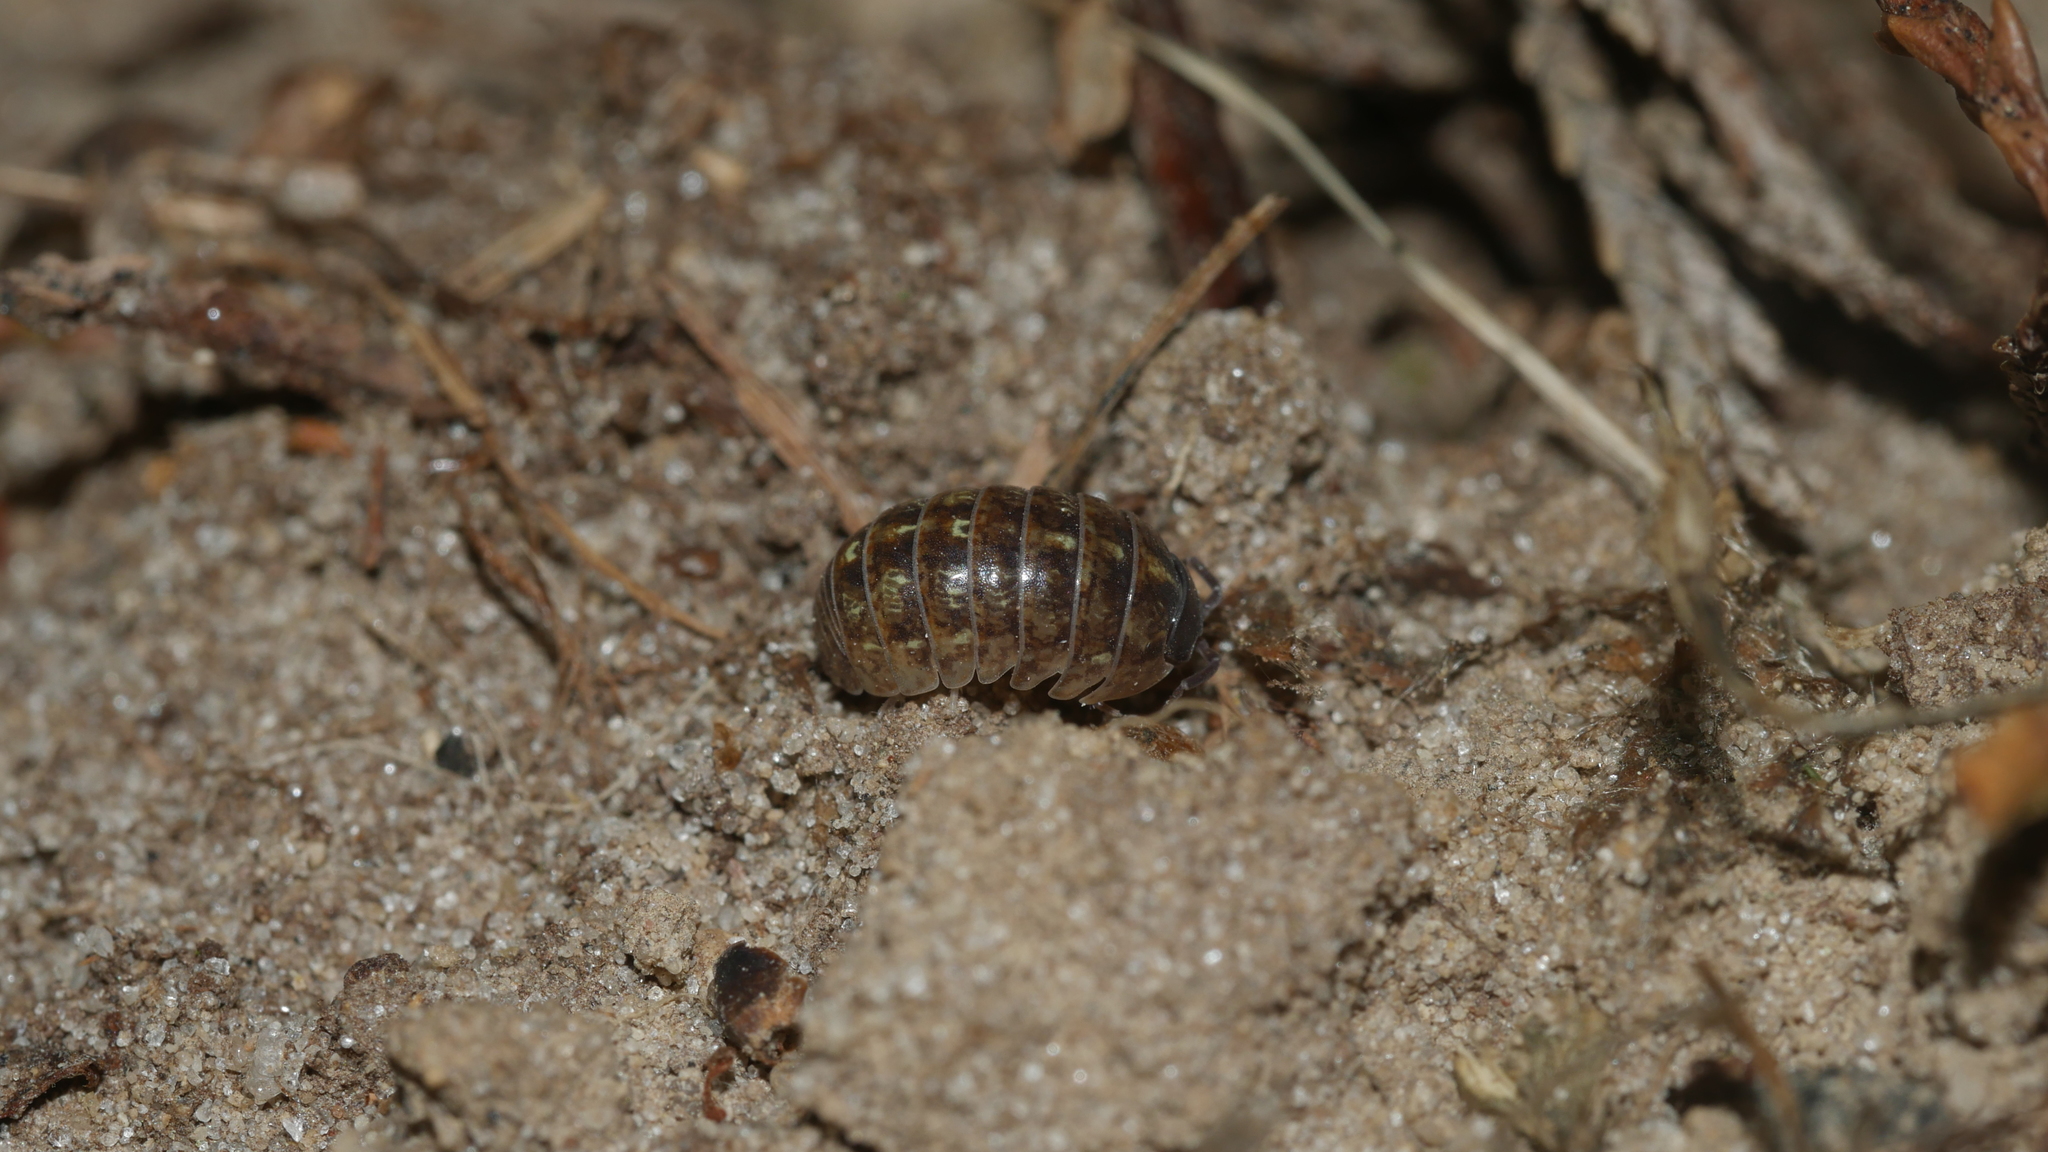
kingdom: Animalia
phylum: Arthropoda
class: Malacostraca
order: Isopoda
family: Armadillidiidae
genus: Armadillidium
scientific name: Armadillidium vulgare
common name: Common pill woodlouse
